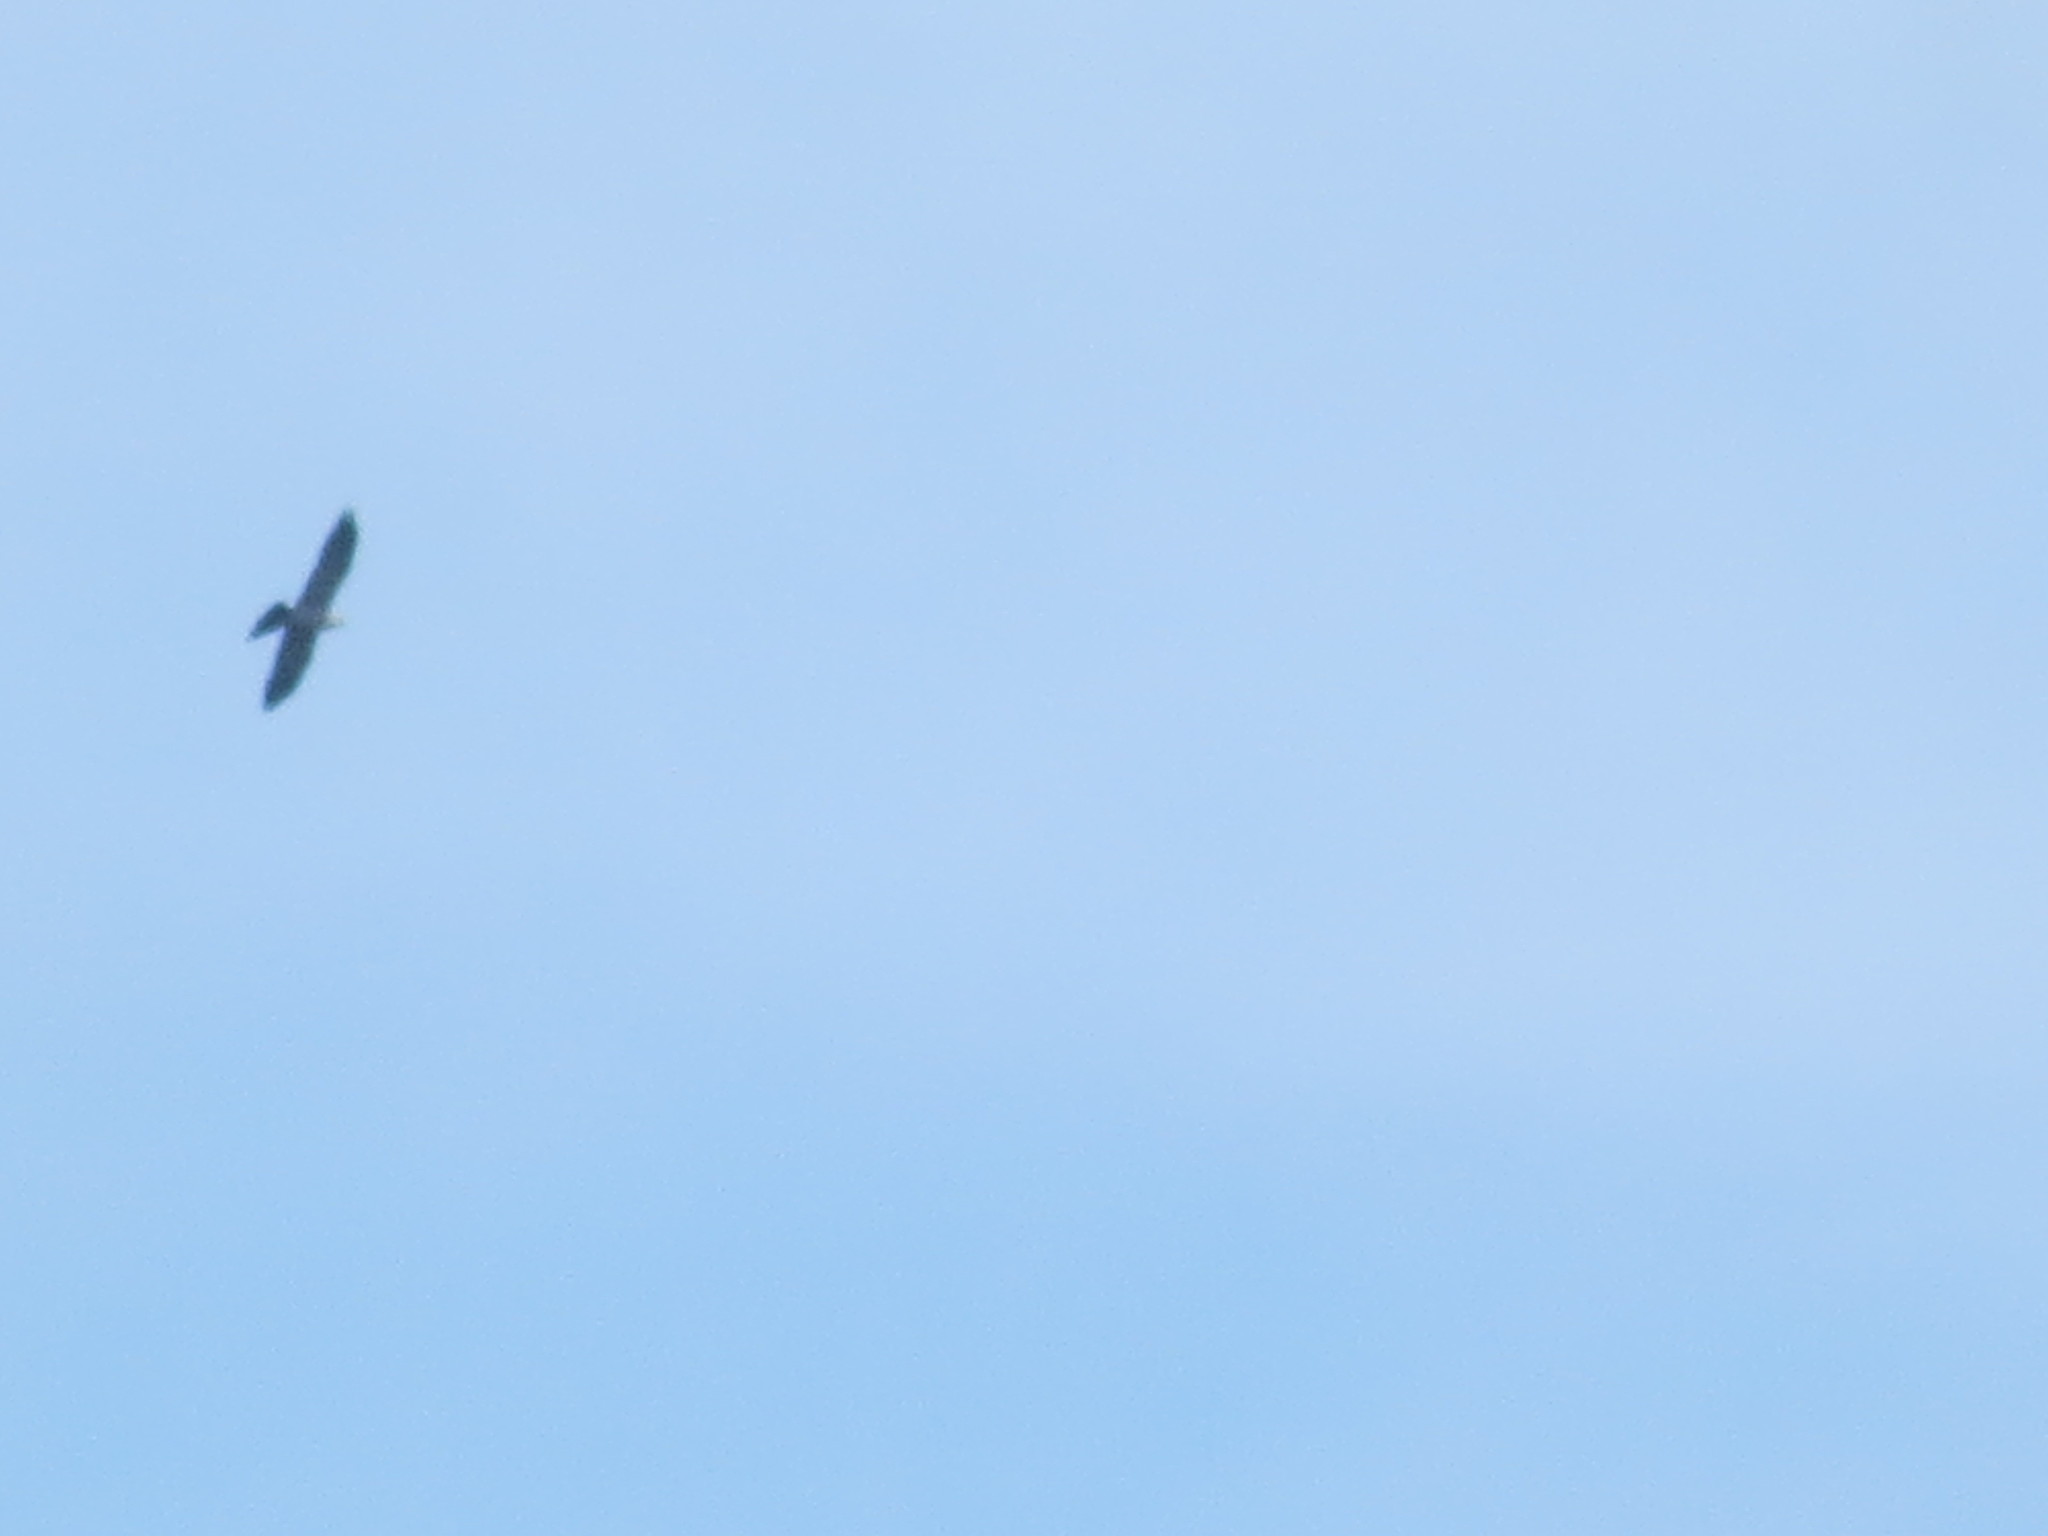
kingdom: Animalia
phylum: Chordata
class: Aves
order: Accipitriformes
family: Accipitridae
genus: Ictinia
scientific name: Ictinia mississippiensis
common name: Mississippi kite
